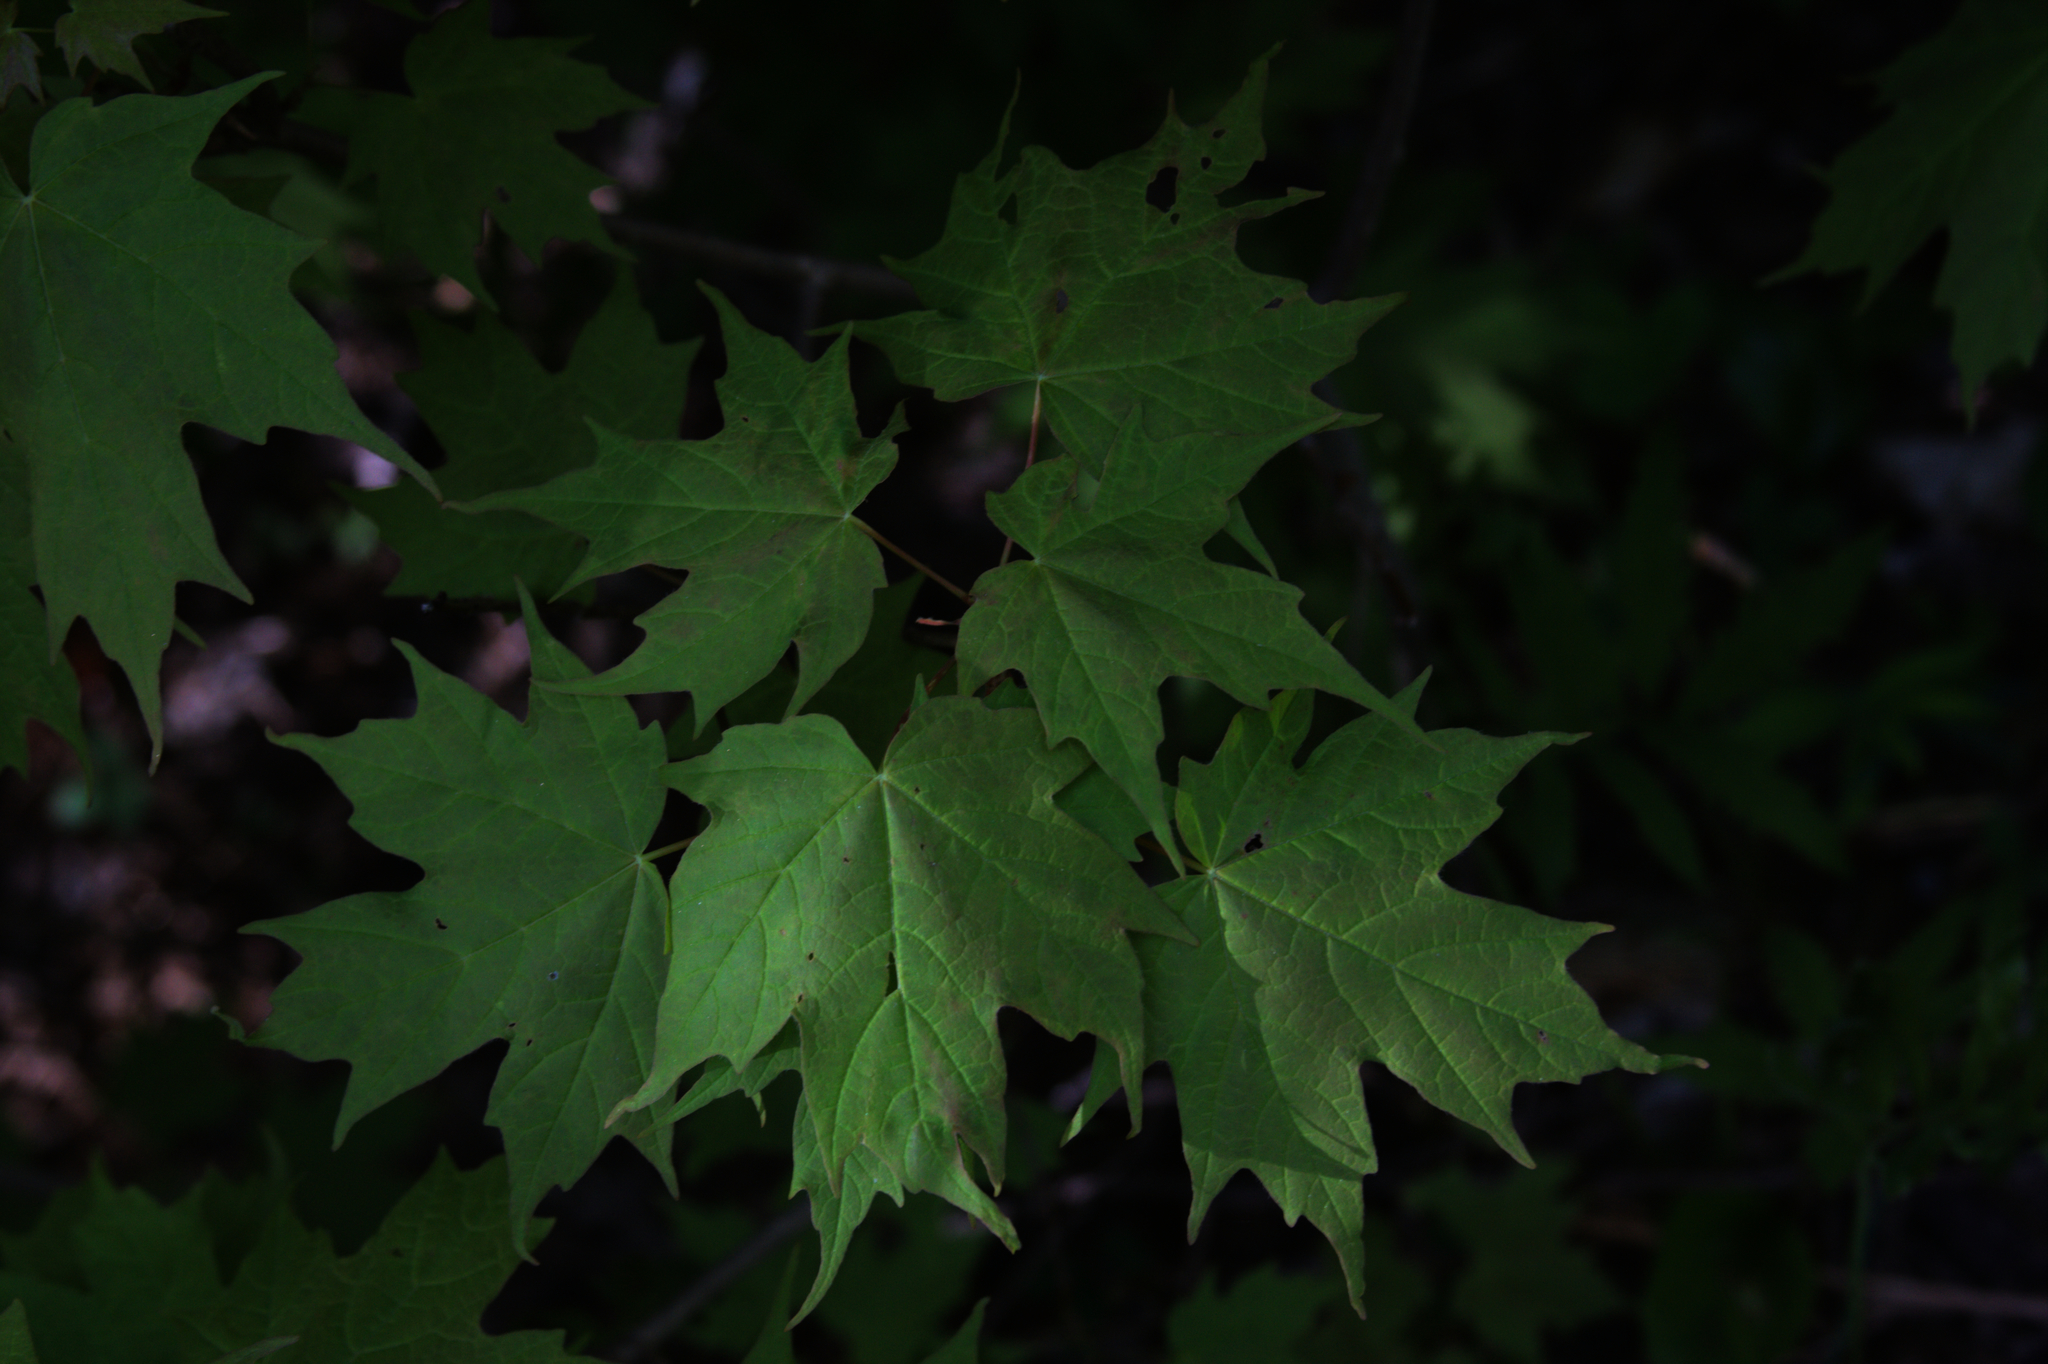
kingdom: Plantae
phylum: Tracheophyta
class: Magnoliopsida
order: Sapindales
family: Sapindaceae
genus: Acer
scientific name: Acer saccharum
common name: Sugar maple
